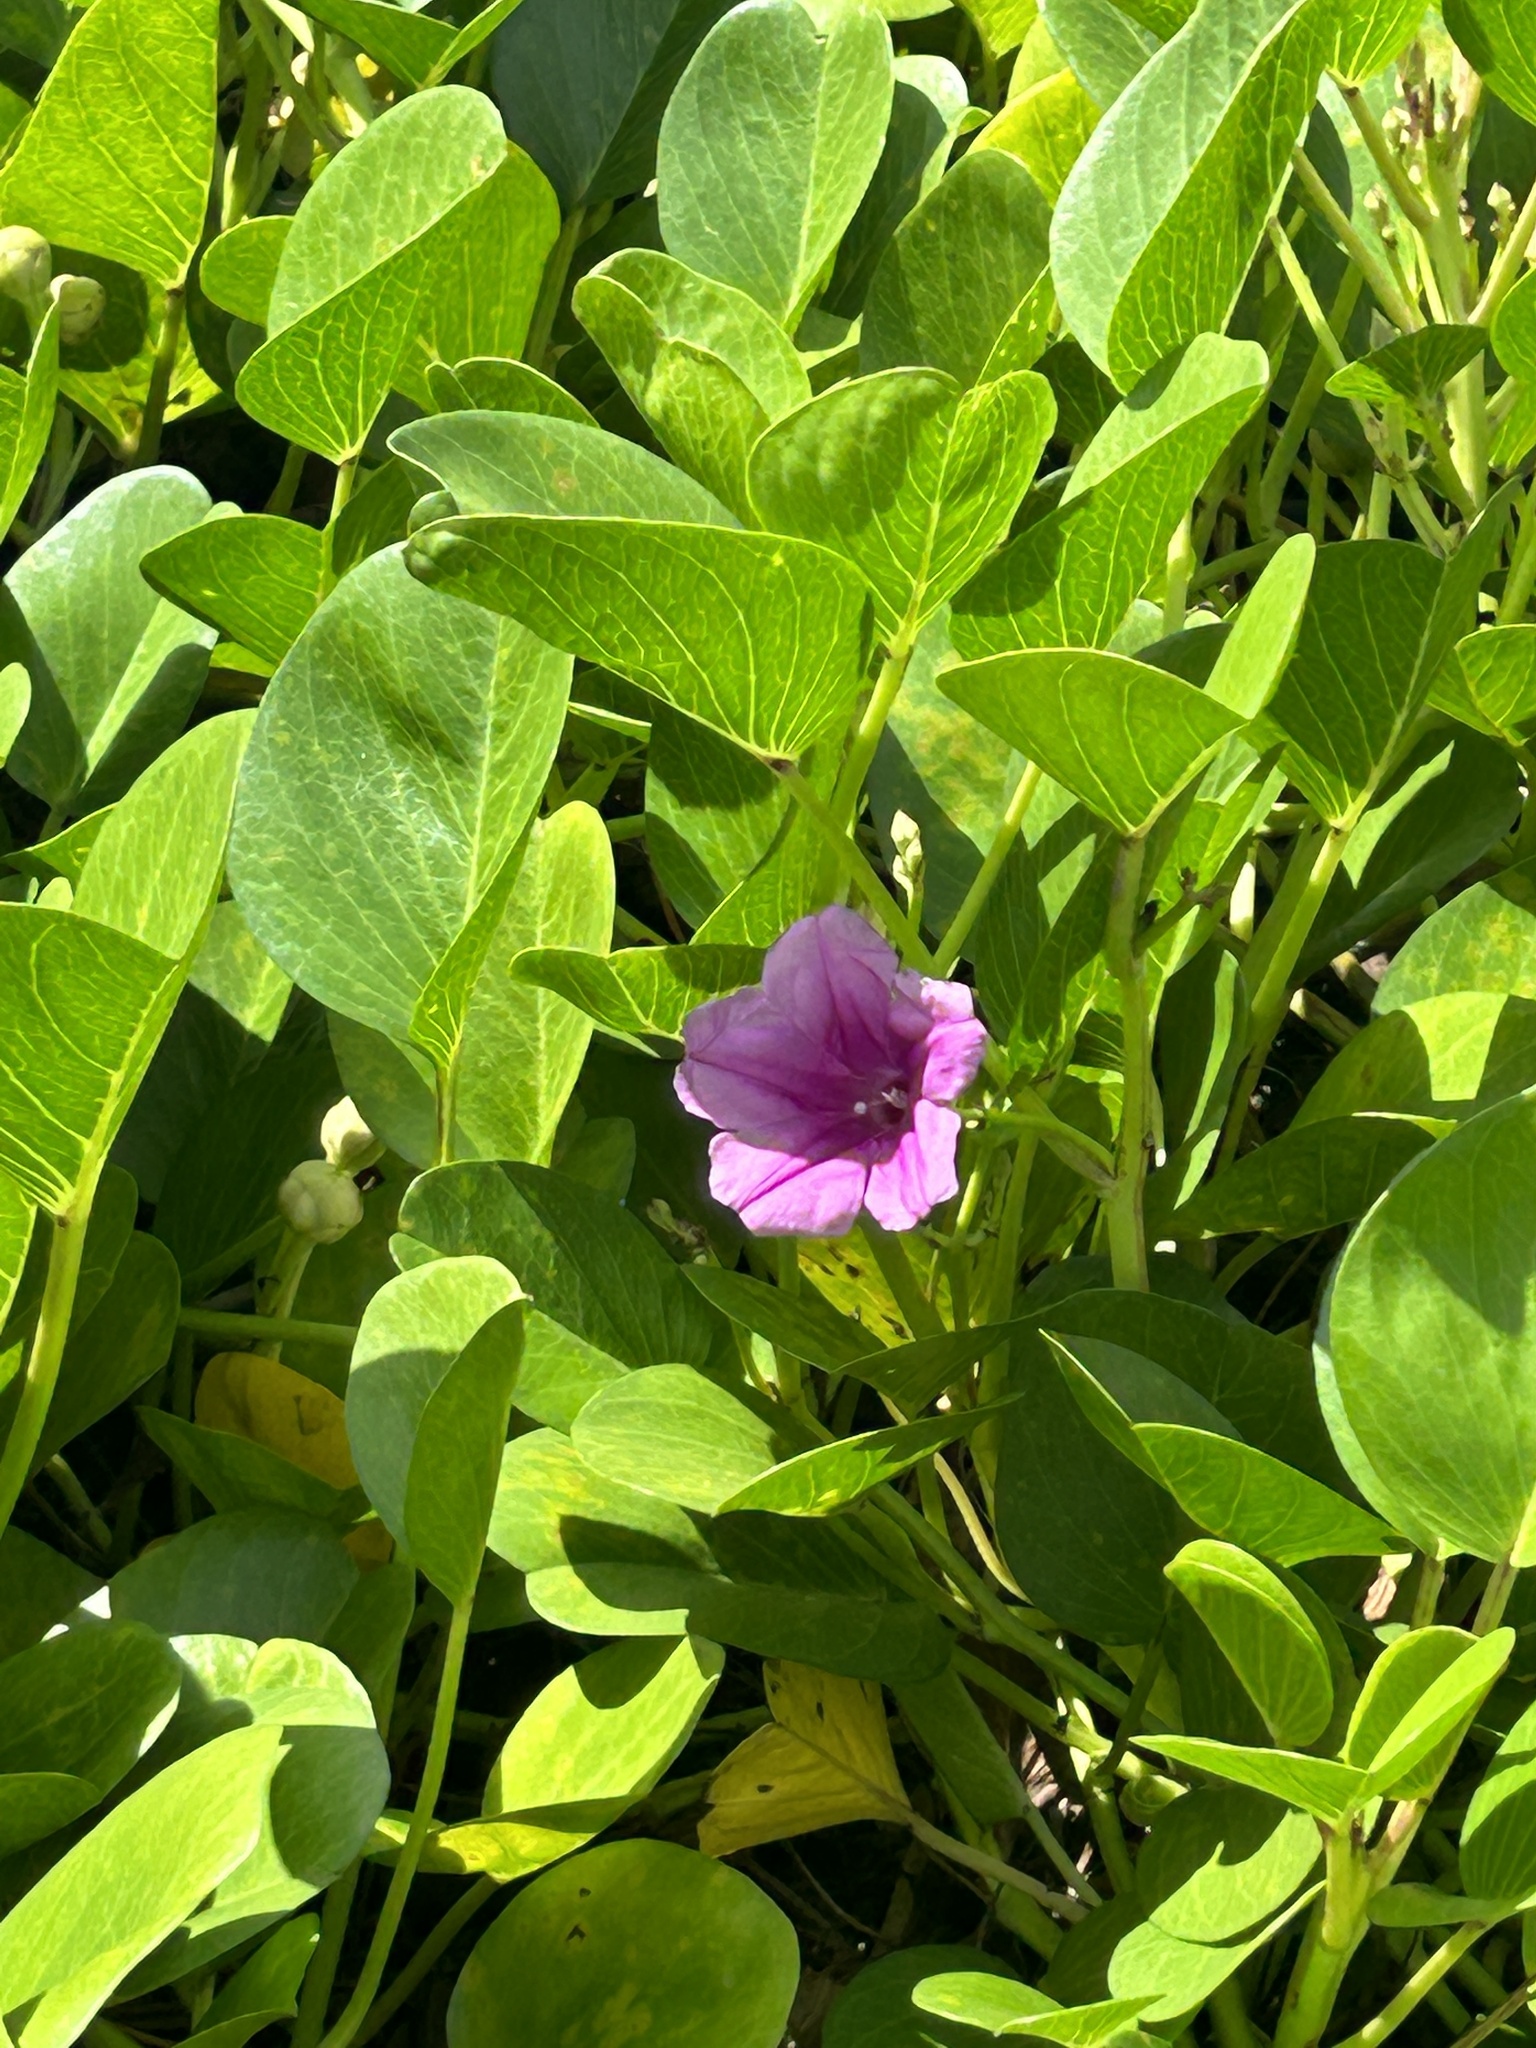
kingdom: Plantae
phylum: Tracheophyta
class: Magnoliopsida
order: Solanales
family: Convolvulaceae
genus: Ipomoea
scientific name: Ipomoea pes-caprae
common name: Beach morning glory
